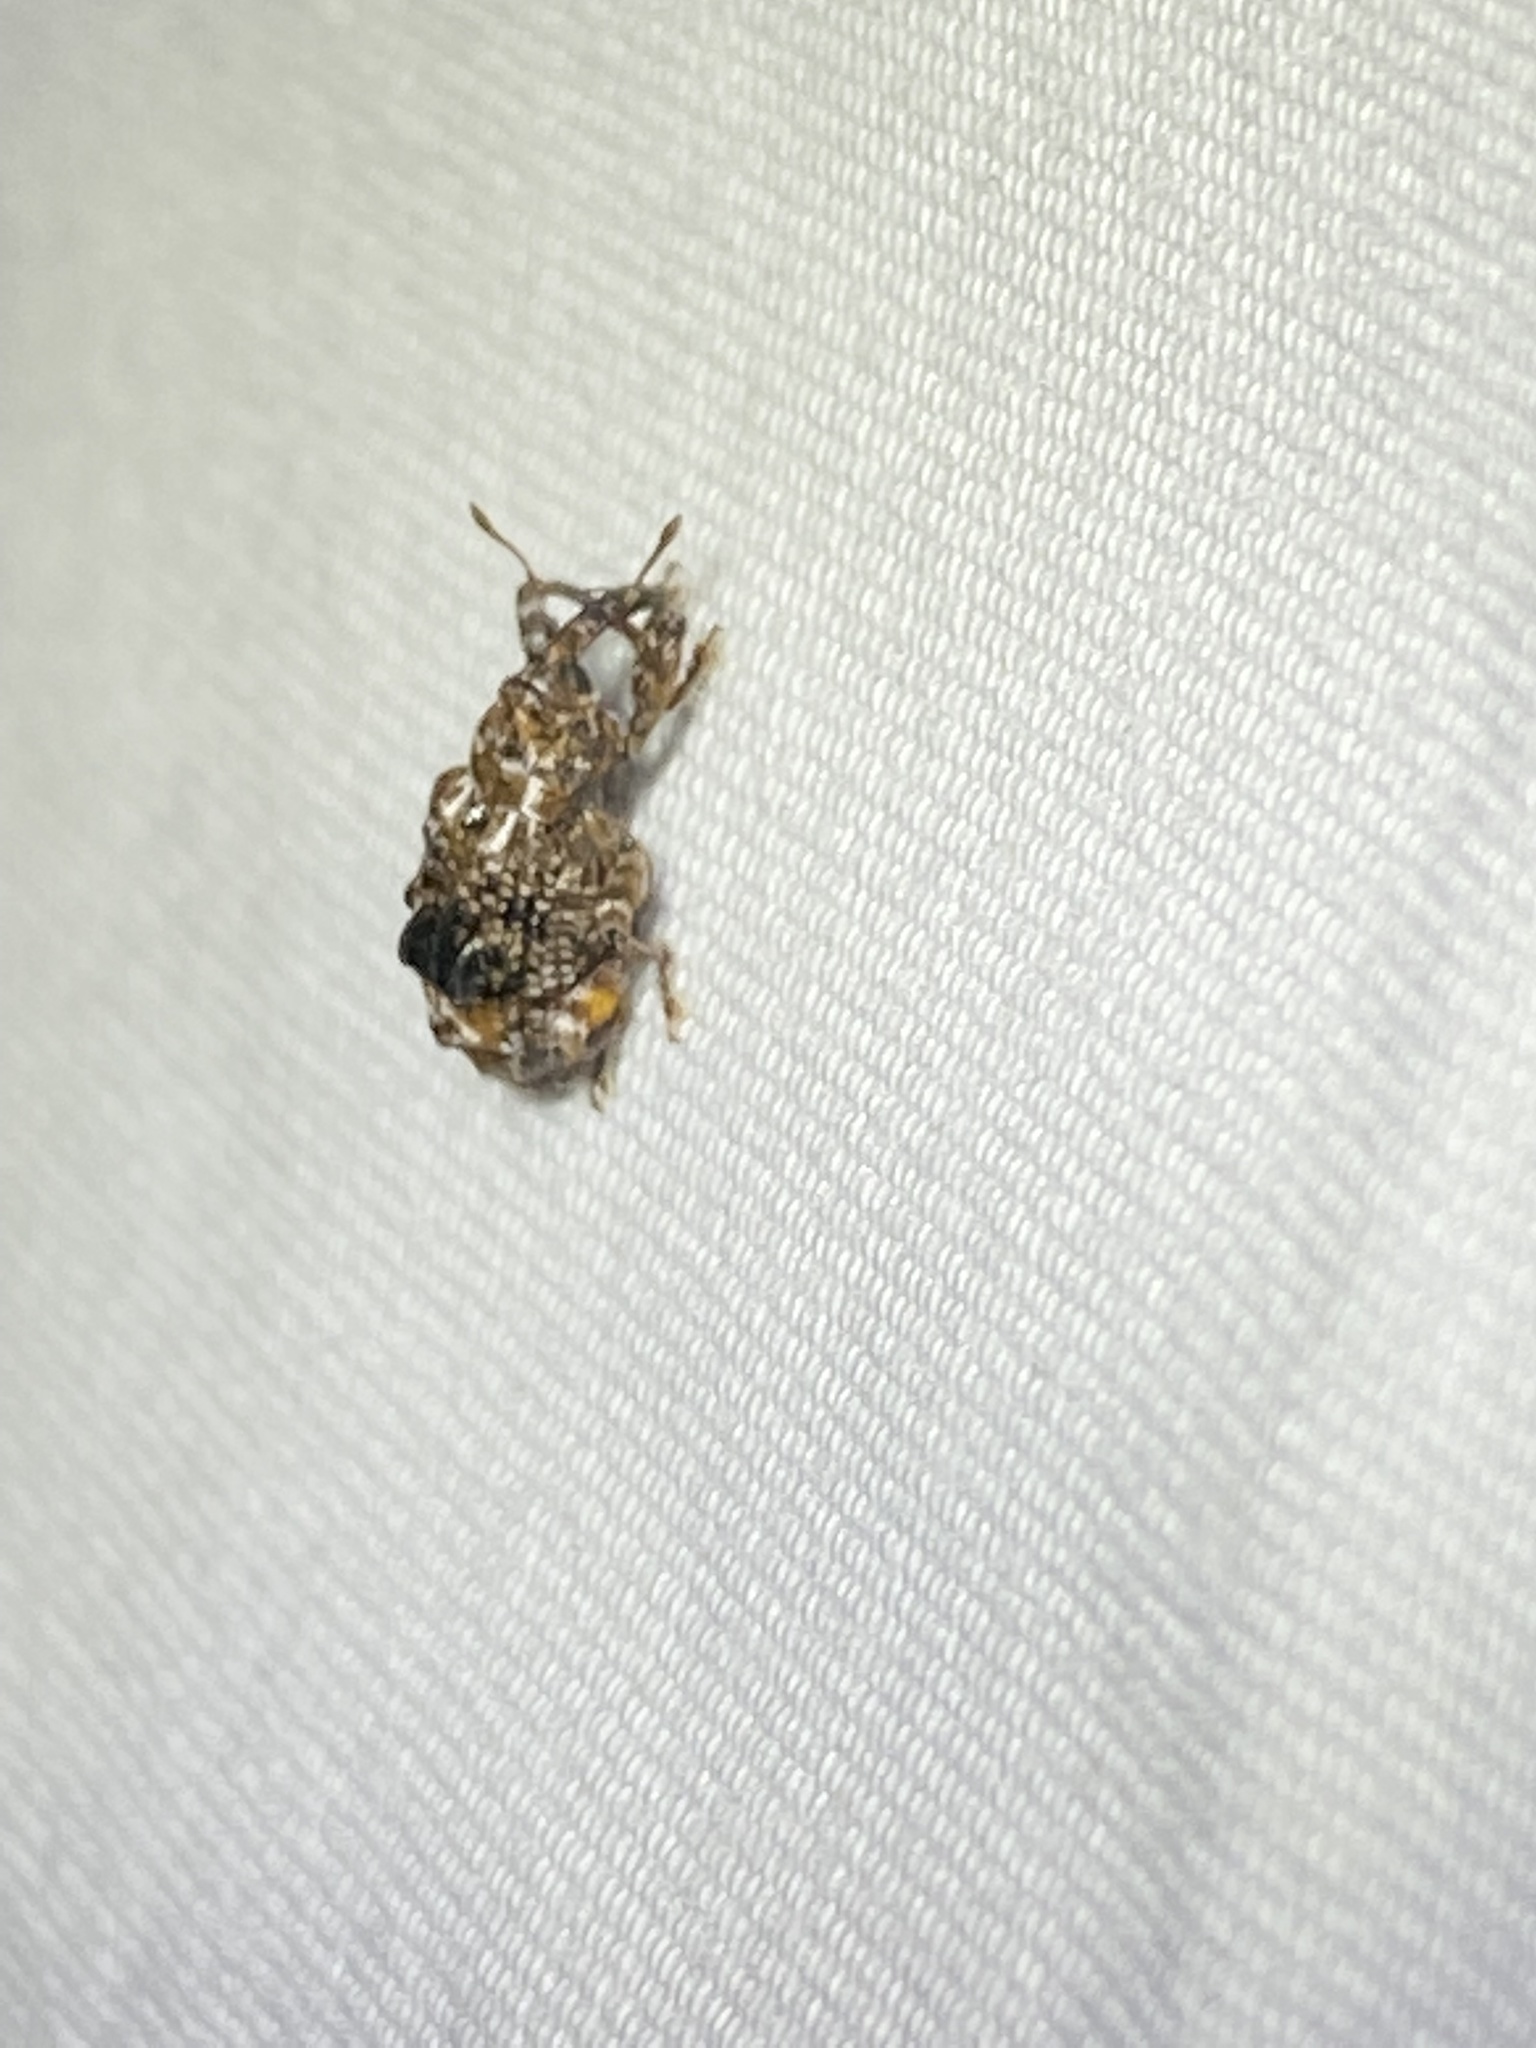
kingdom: Animalia
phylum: Arthropoda
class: Insecta
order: Coleoptera
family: Curculionidae
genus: Conotrachelus
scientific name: Conotrachelus nenuphar
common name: Plum curculio
